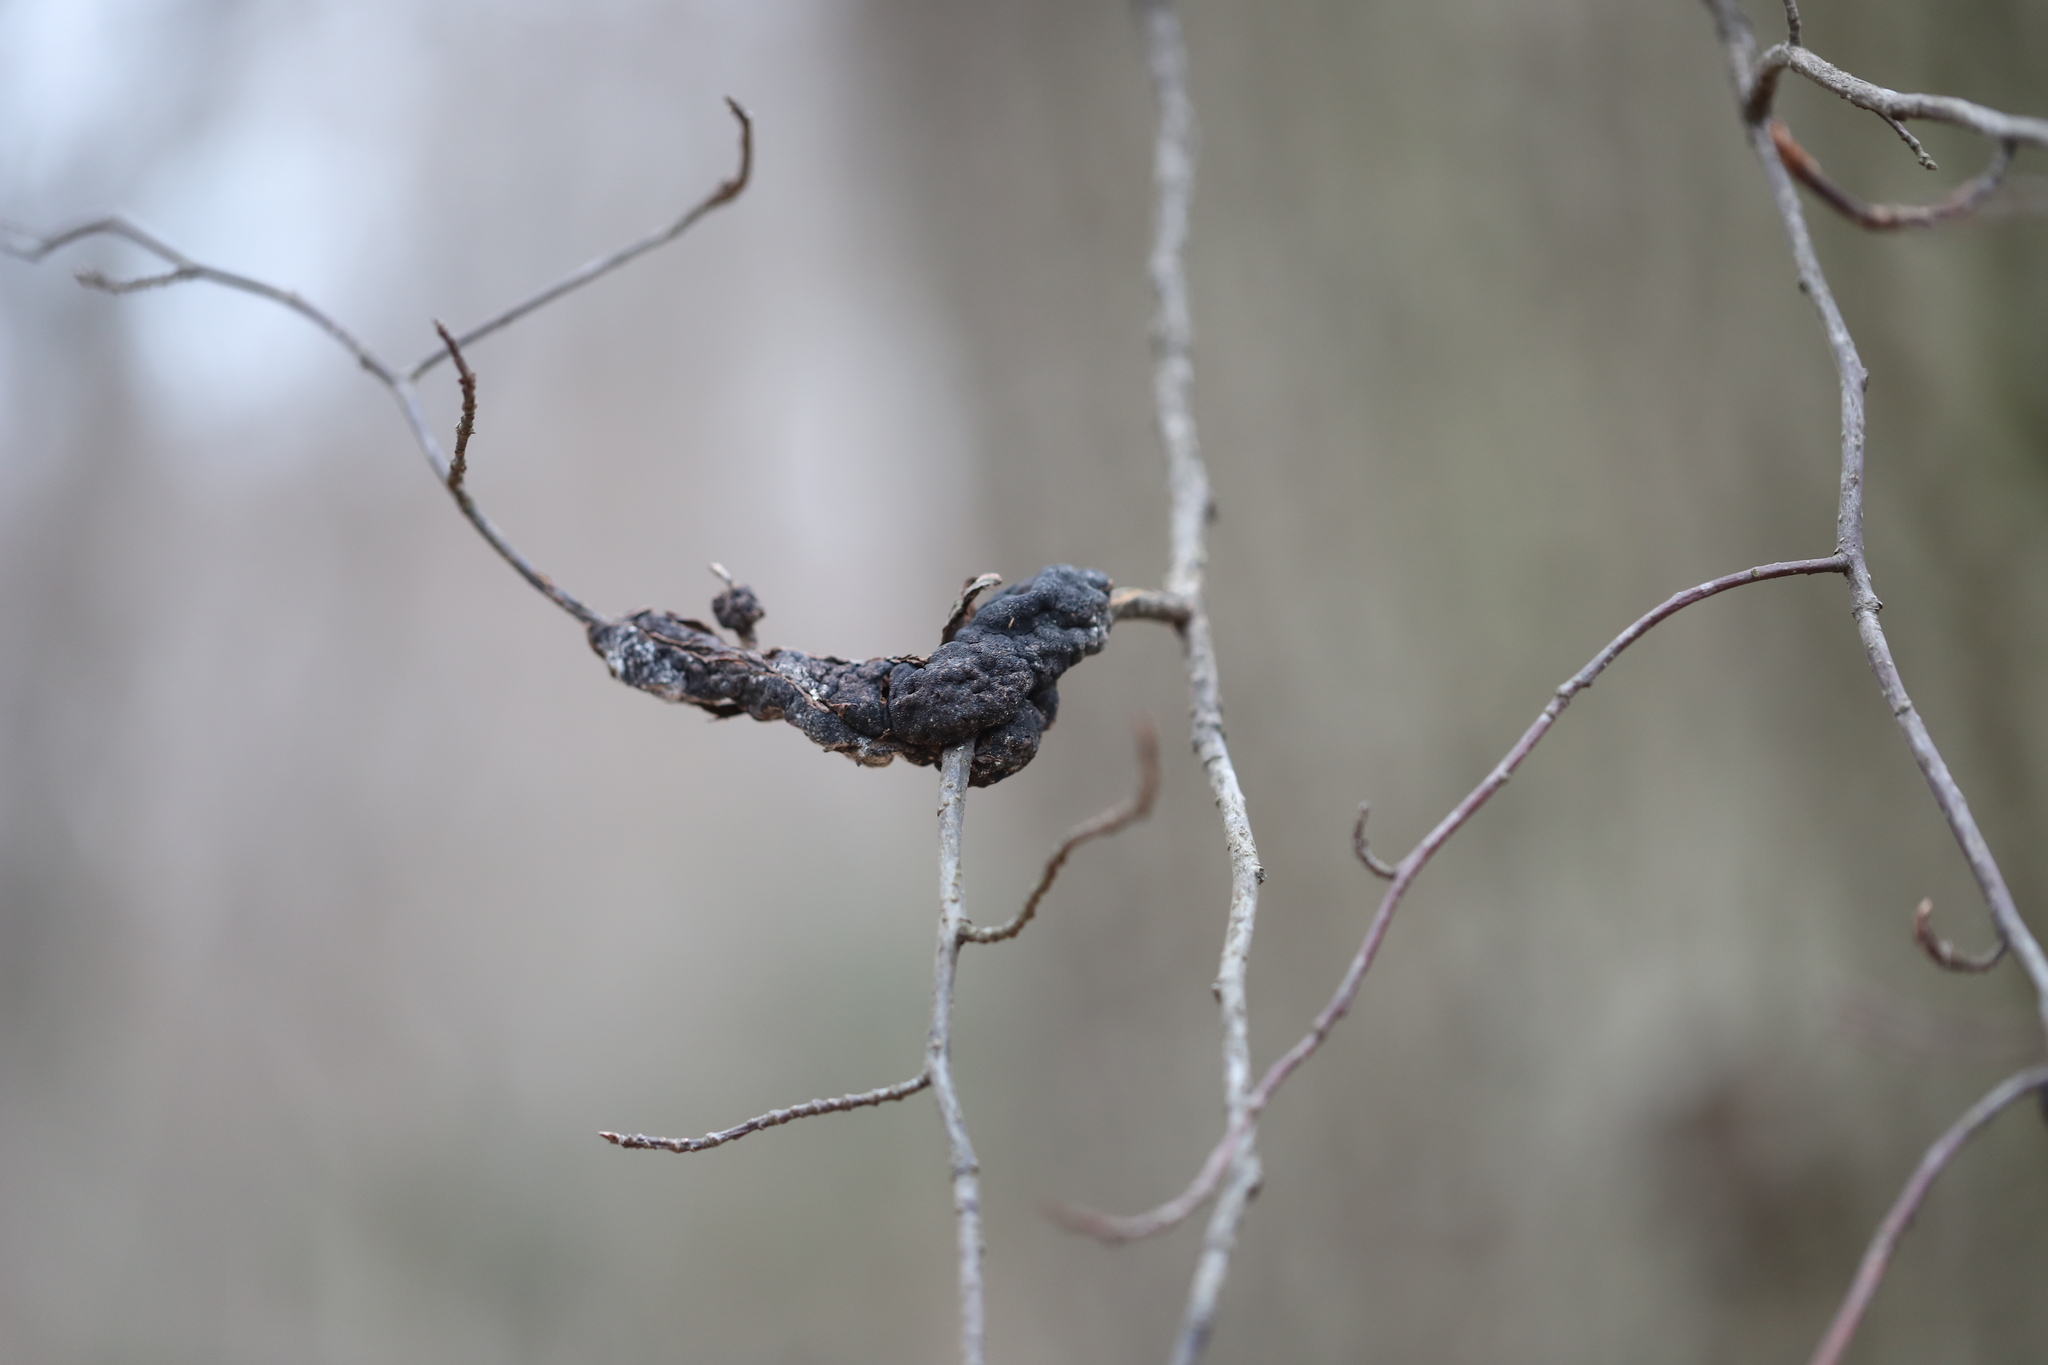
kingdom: Fungi
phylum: Ascomycota
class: Dothideomycetes
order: Venturiales
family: Venturiaceae
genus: Apiosporina
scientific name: Apiosporina morbosa
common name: Black knot
